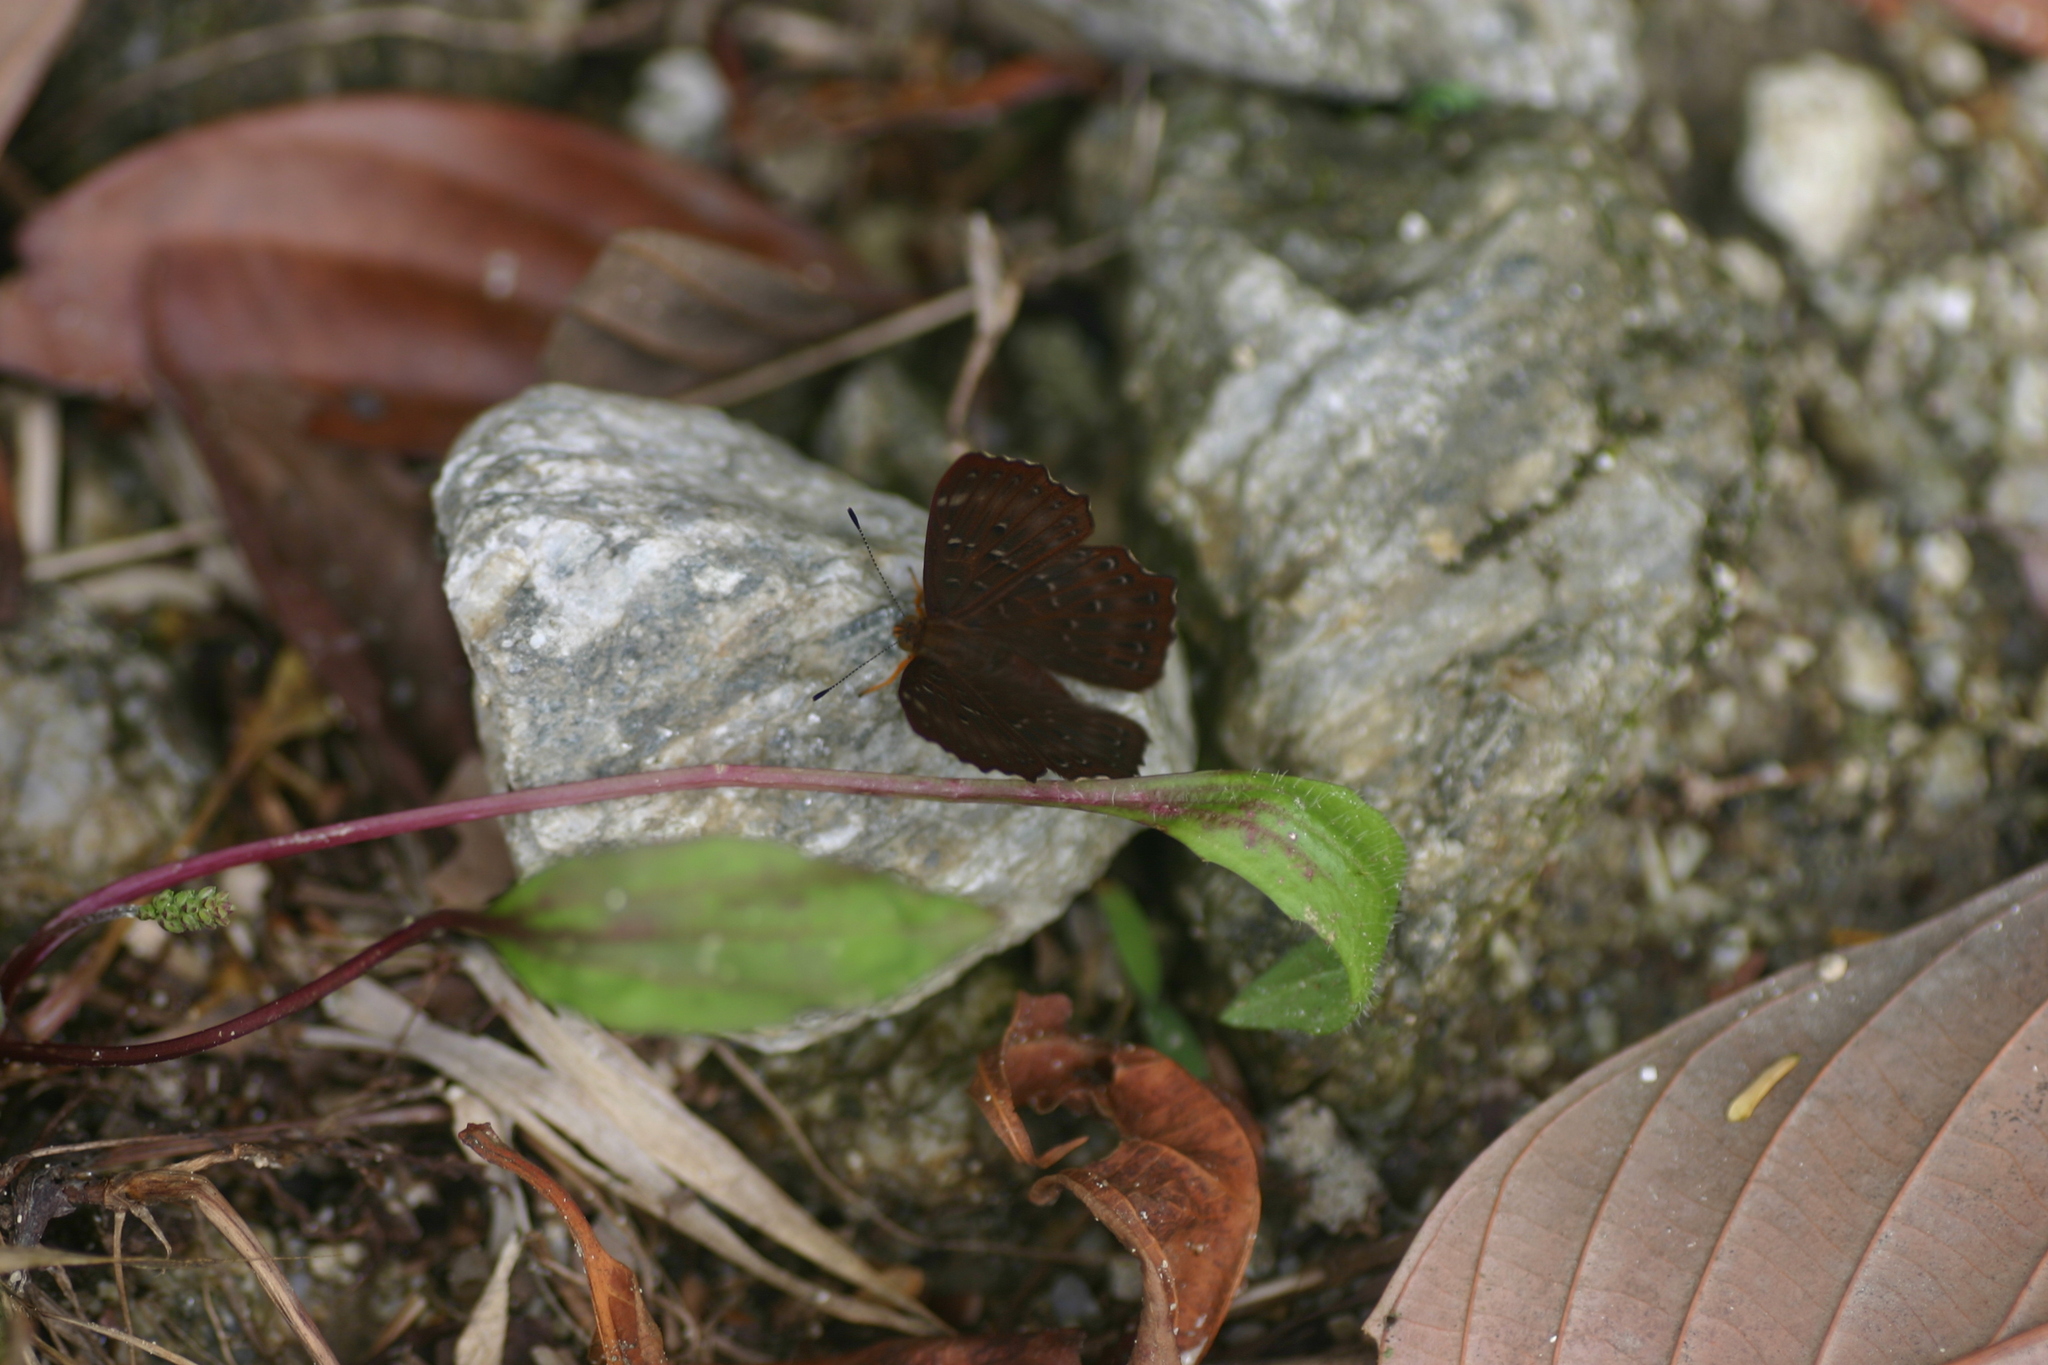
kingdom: Animalia
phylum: Arthropoda
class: Insecta
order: Lepidoptera
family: Riodinidae
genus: Zemeros
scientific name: Zemeros flegyas
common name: Punchinello
